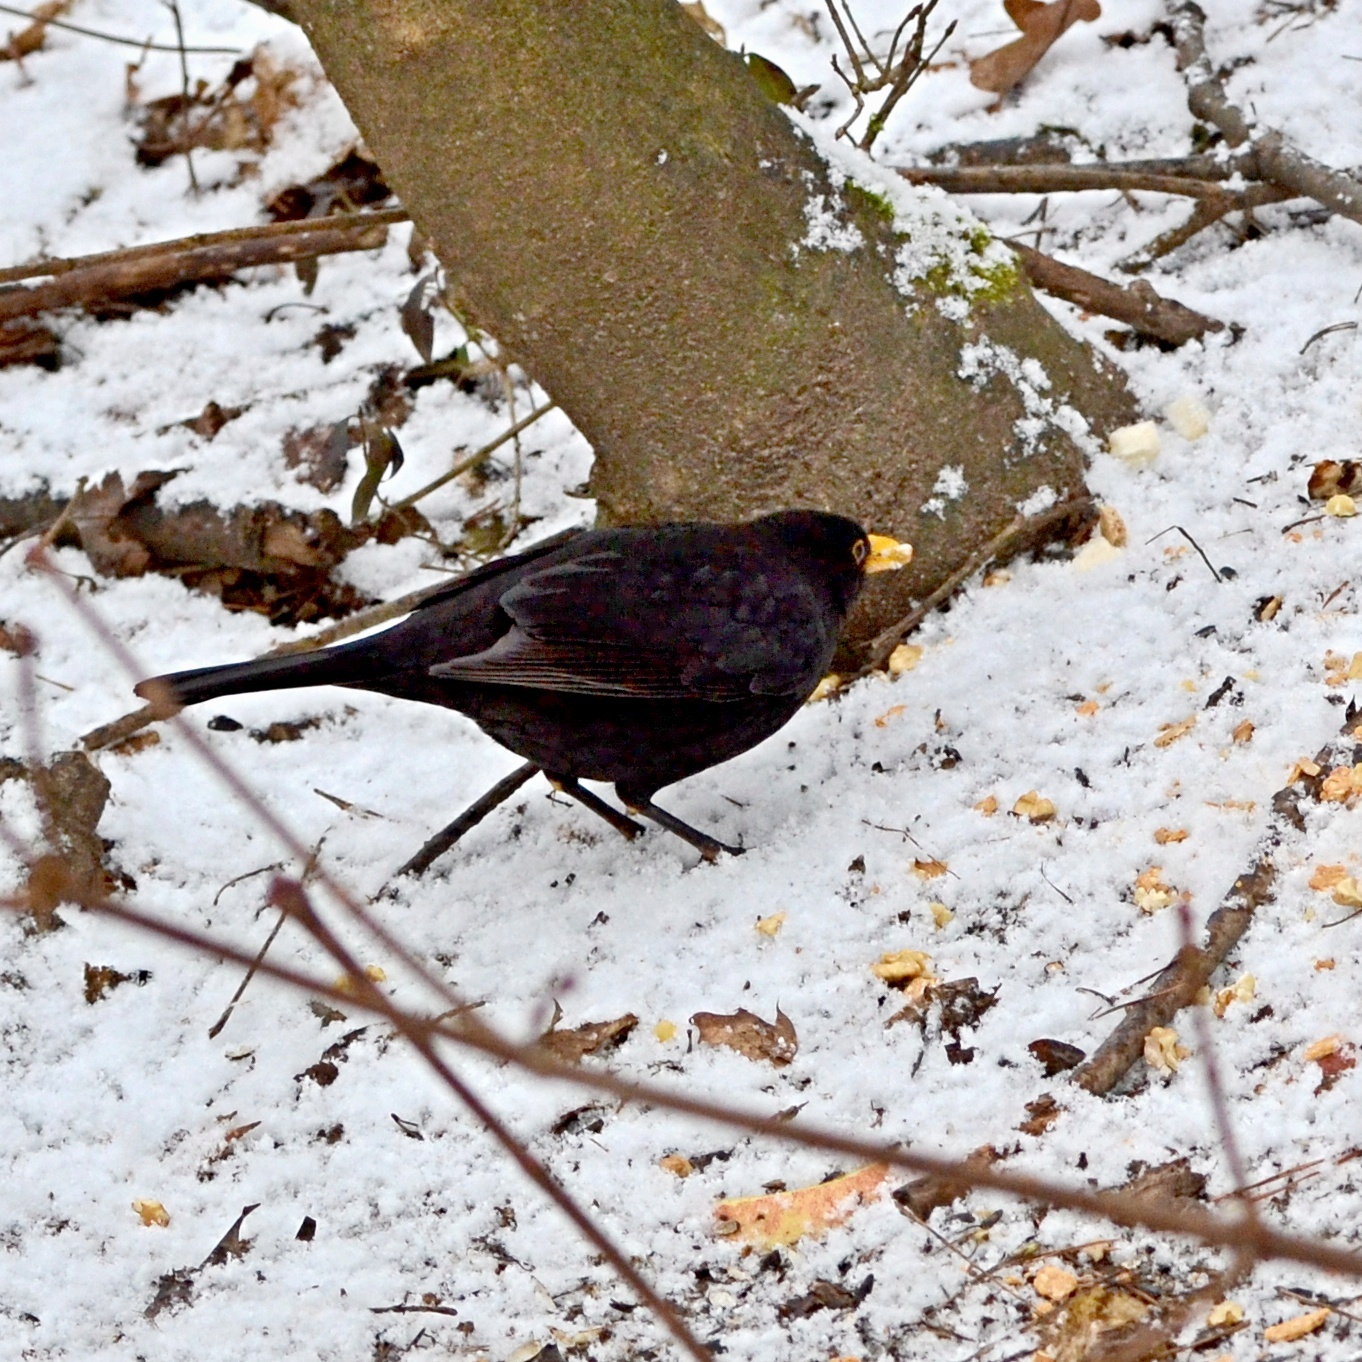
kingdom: Animalia
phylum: Chordata
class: Aves
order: Passeriformes
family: Turdidae
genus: Turdus
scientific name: Turdus merula
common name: Common blackbird
